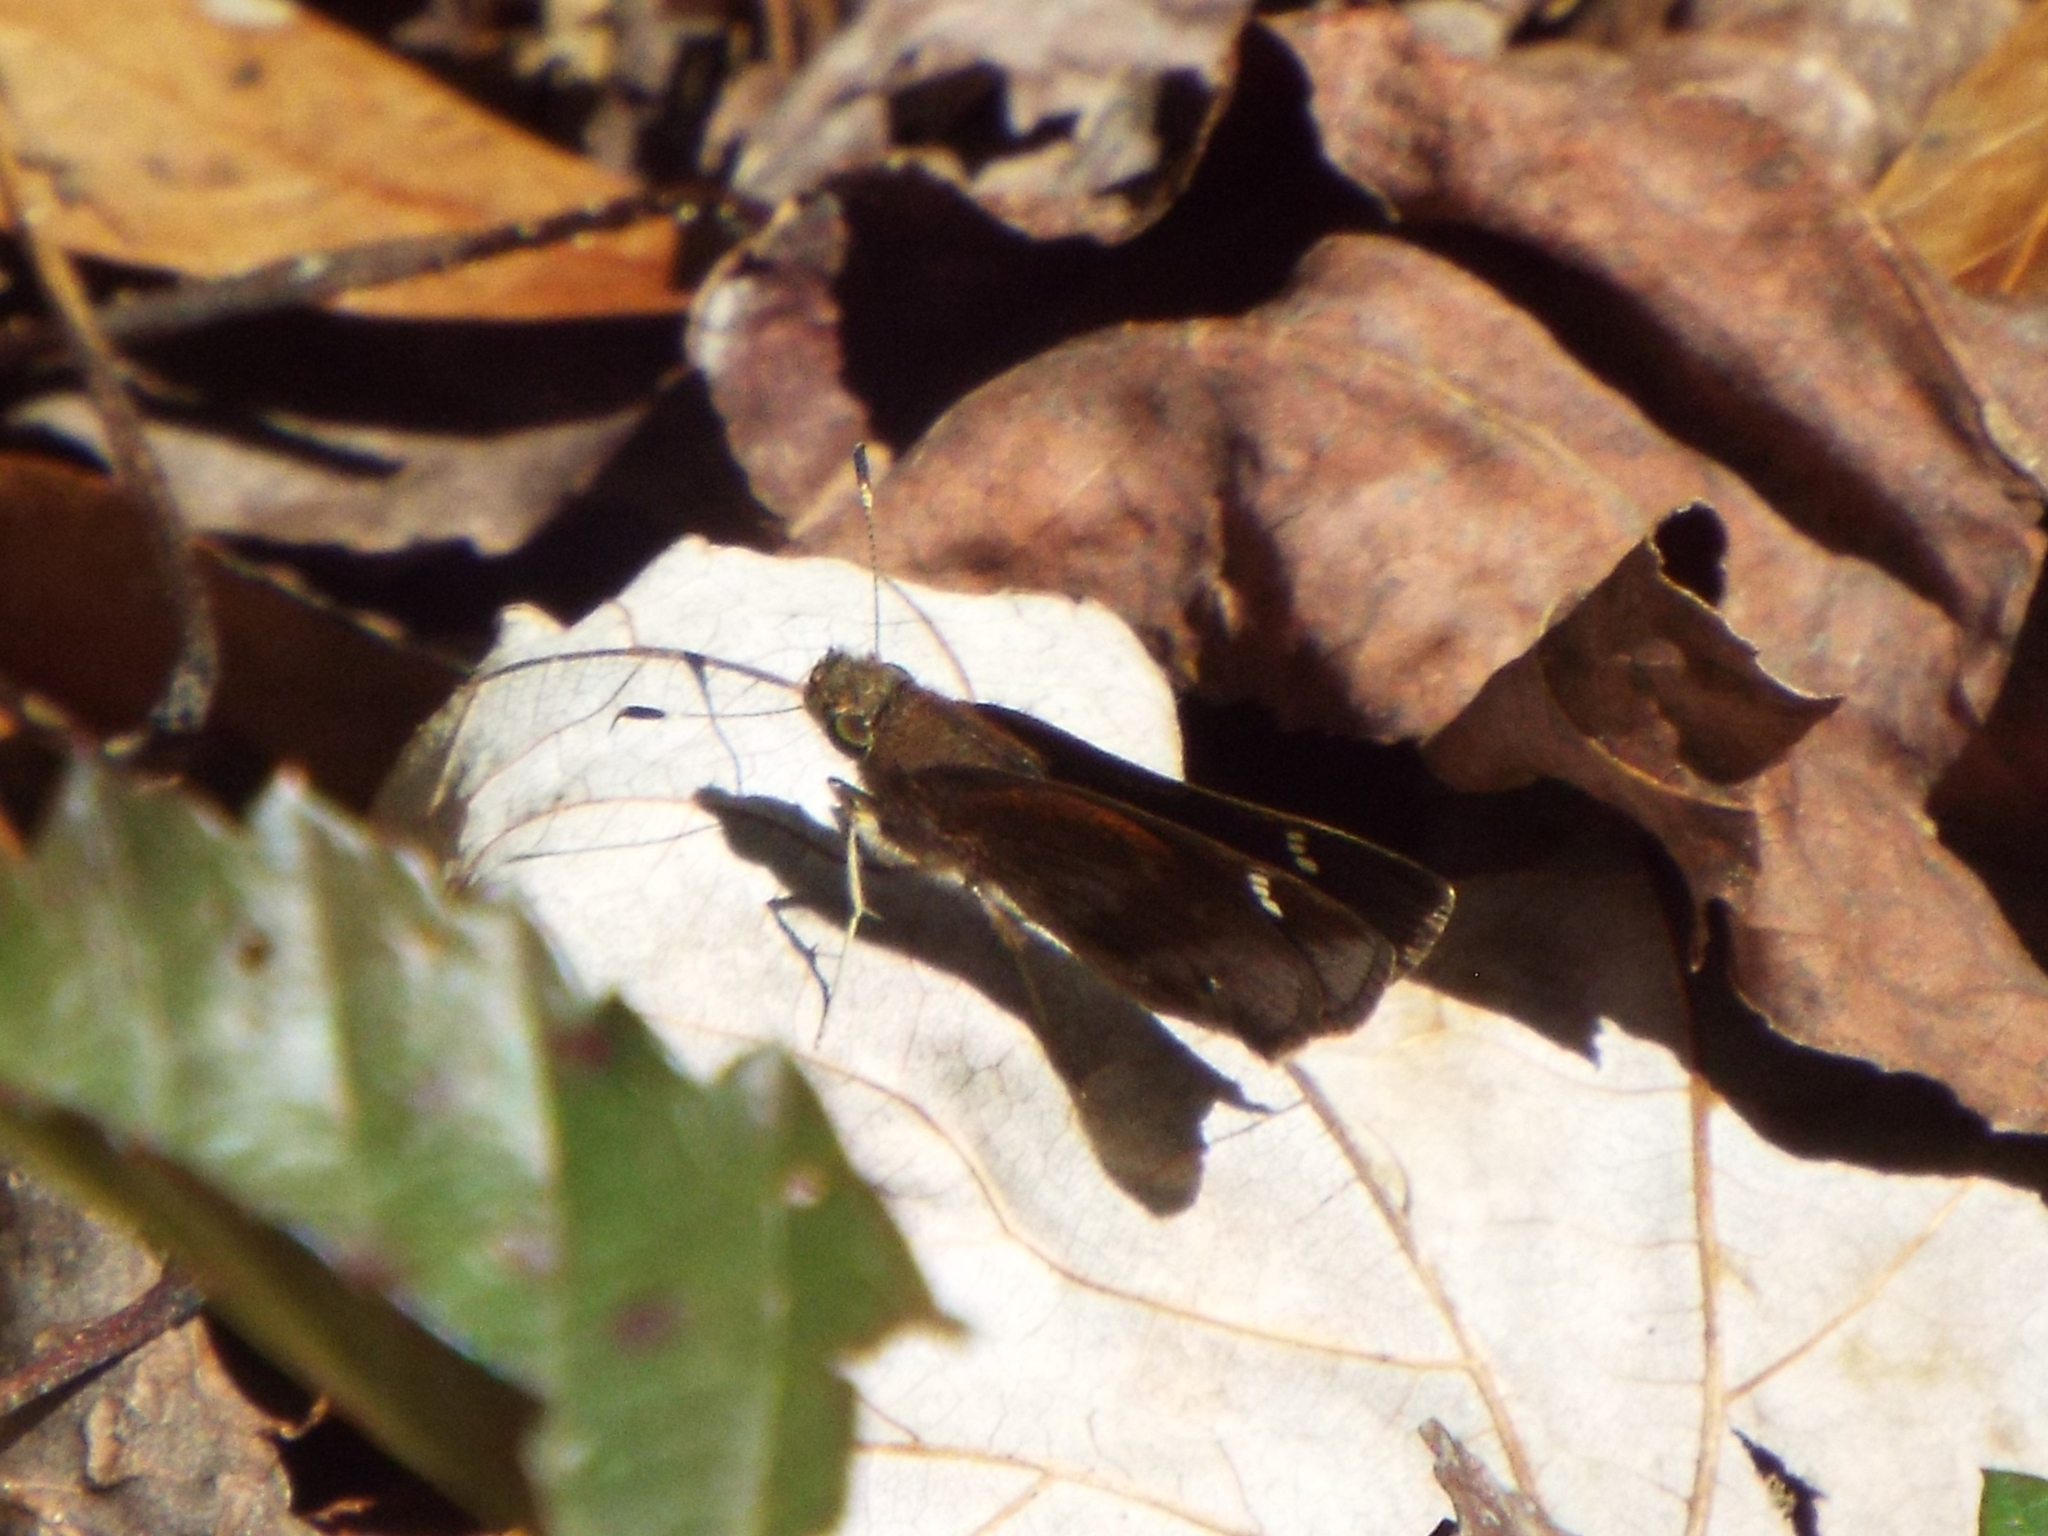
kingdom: Animalia
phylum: Arthropoda
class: Insecta
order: Lepidoptera
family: Hesperiidae
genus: Lerema
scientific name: Lerema accius
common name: Clouded skipper
